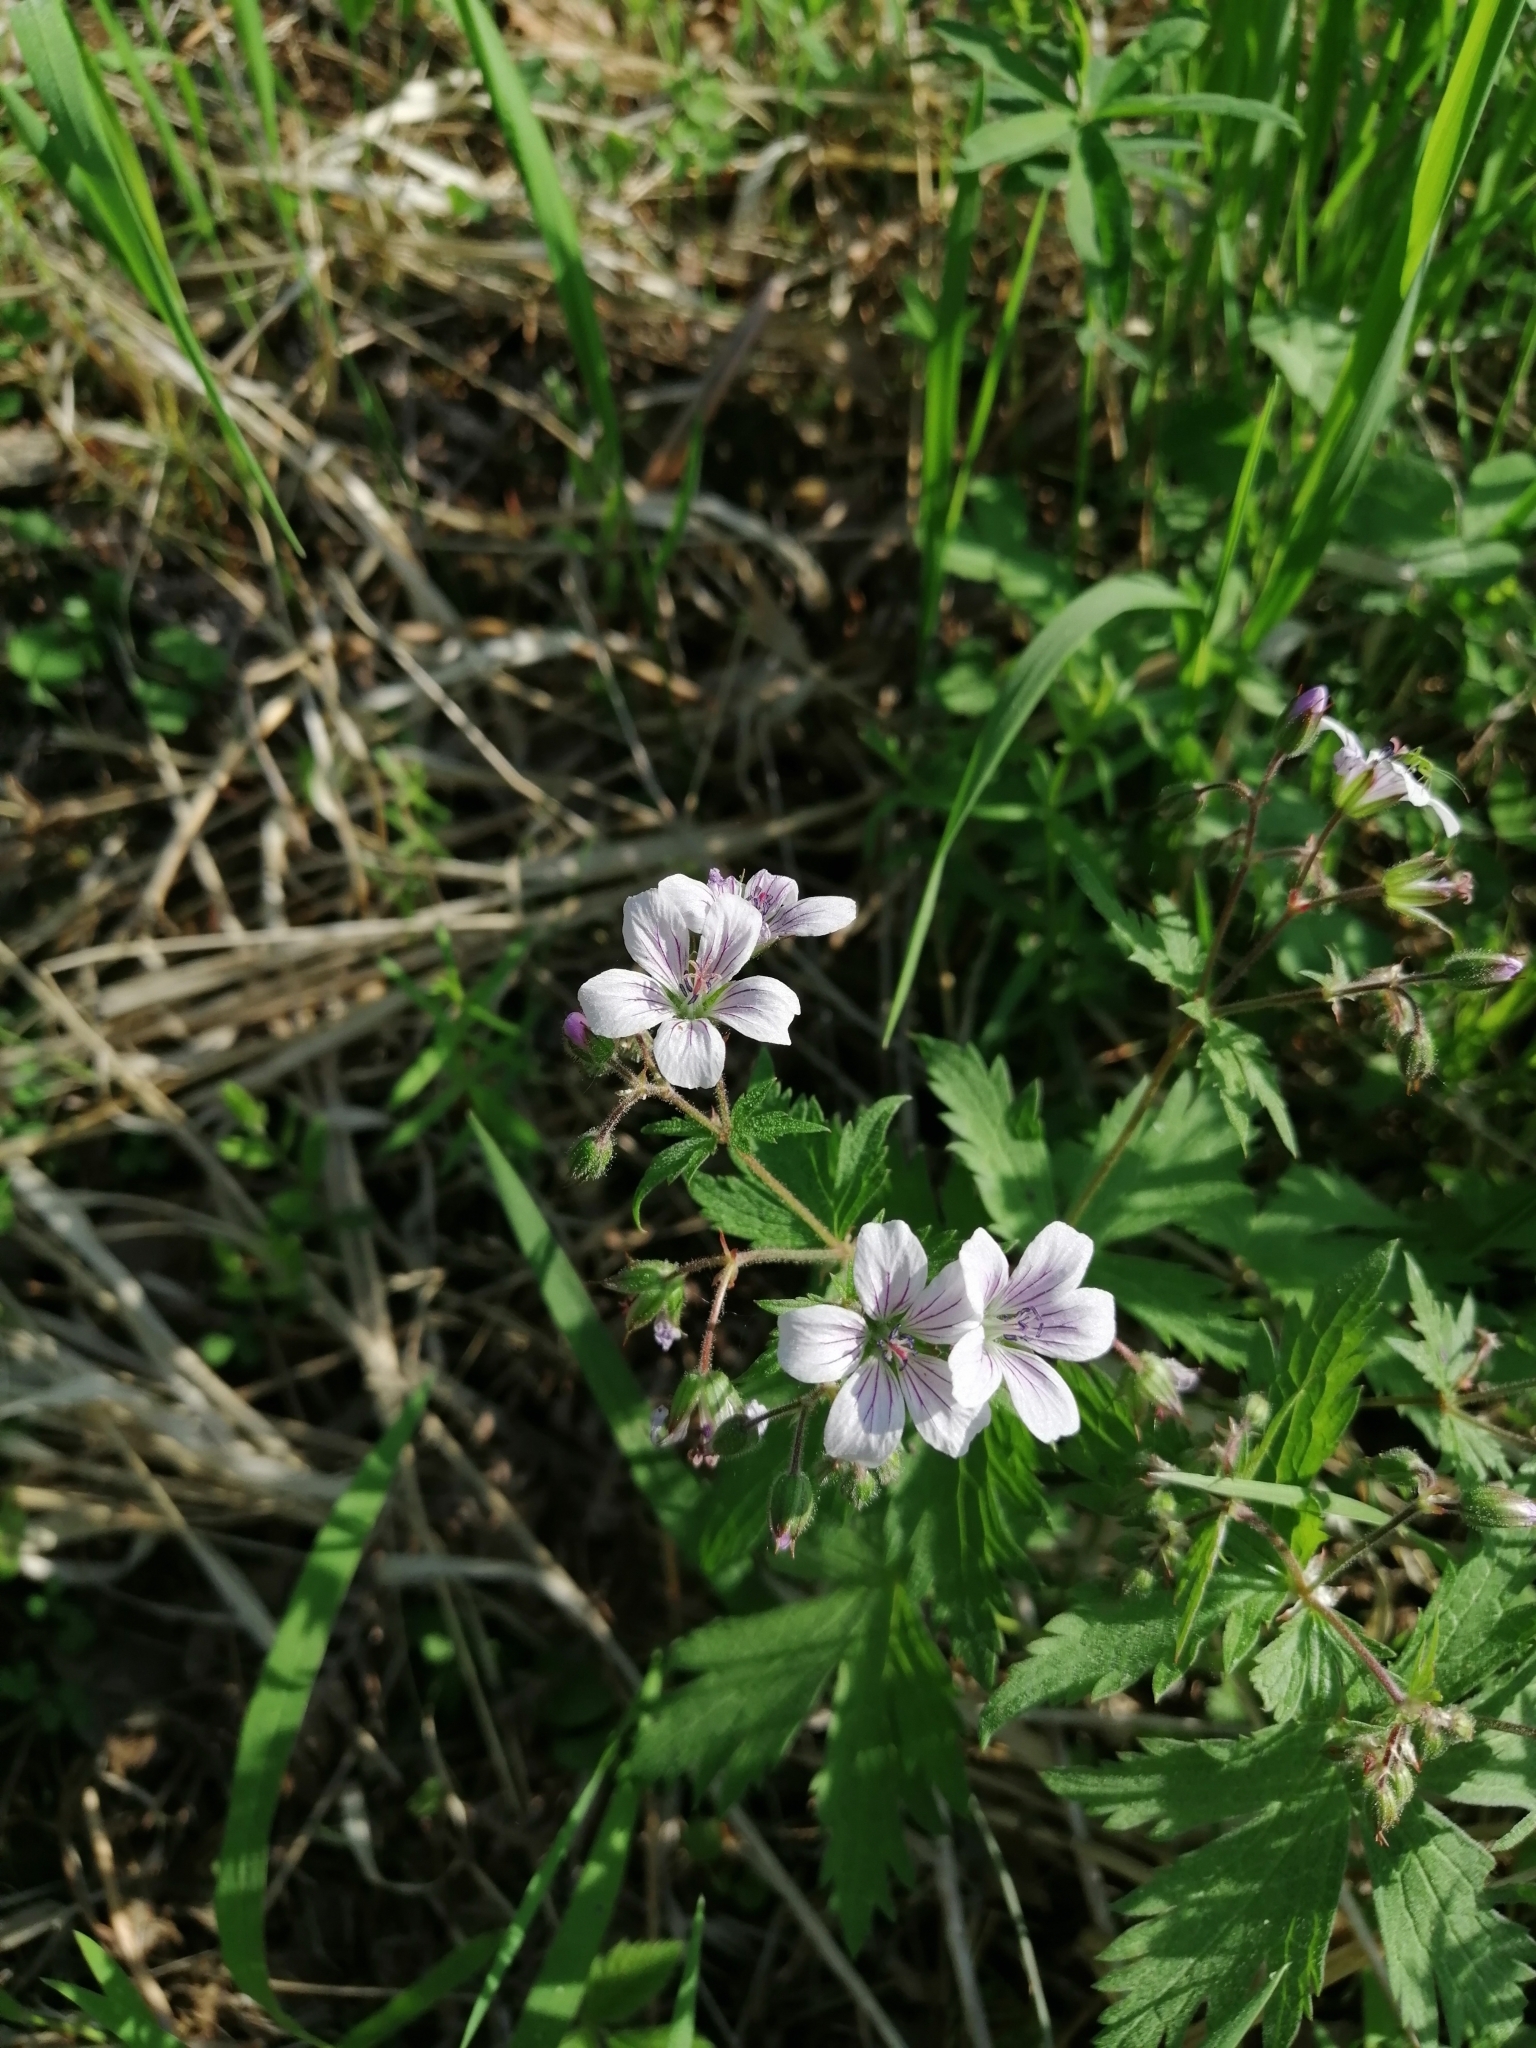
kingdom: Plantae
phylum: Tracheophyta
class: Magnoliopsida
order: Geraniales
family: Geraniaceae
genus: Geranium
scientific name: Geranium sylvaticum
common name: Wood crane's-bill
